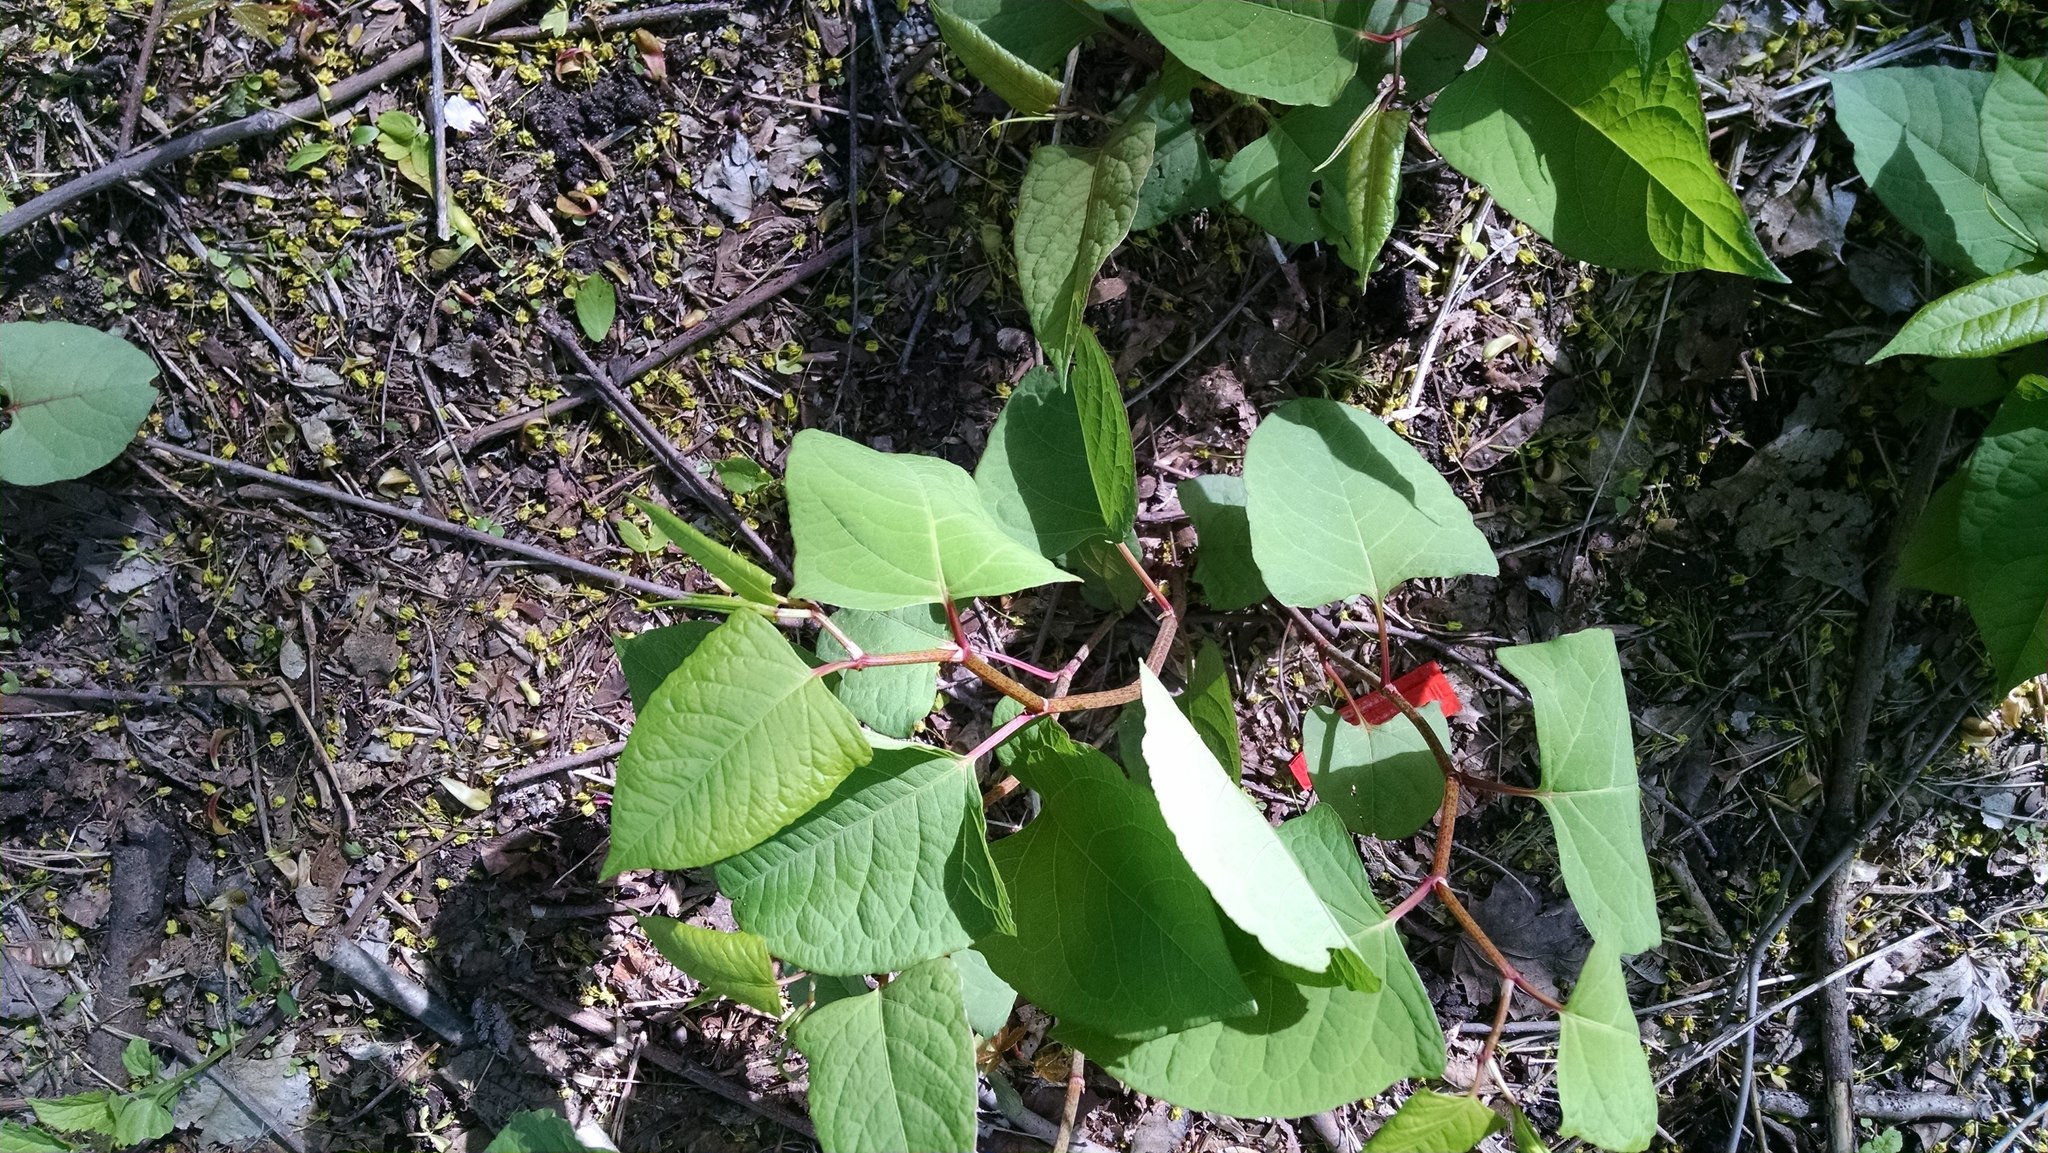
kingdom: Plantae
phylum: Tracheophyta
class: Magnoliopsida
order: Caryophyllales
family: Polygonaceae
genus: Reynoutria
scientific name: Reynoutria japonica
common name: Japanese knotweed
